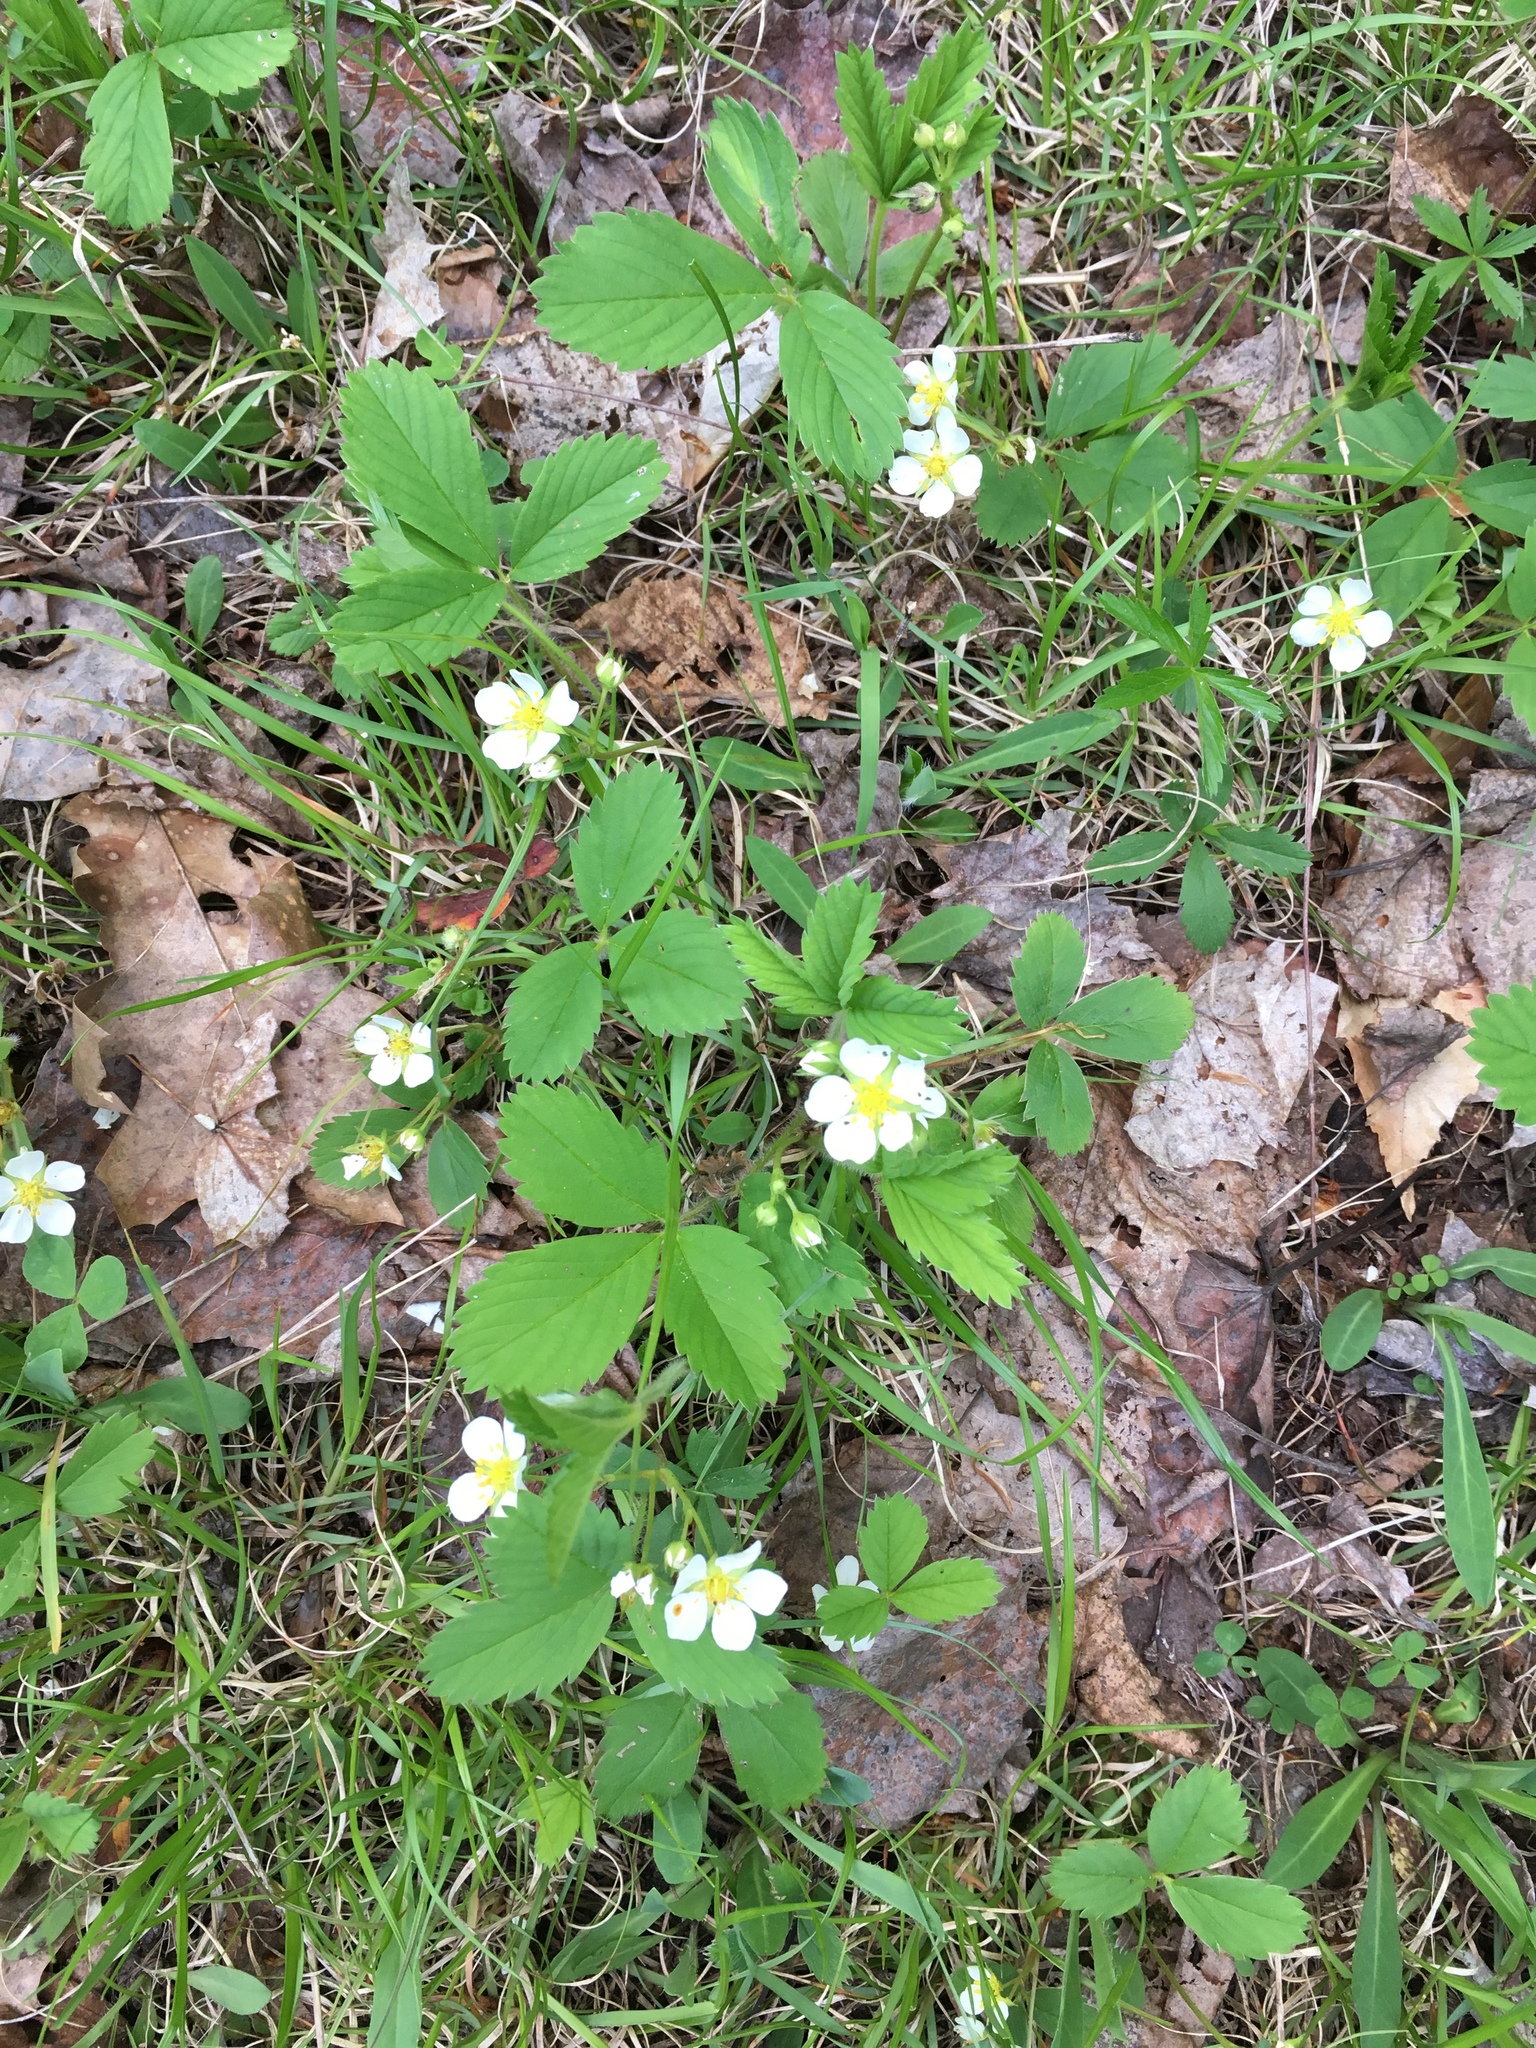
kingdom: Plantae
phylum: Tracheophyta
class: Magnoliopsida
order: Rosales
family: Rosaceae
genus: Fragaria
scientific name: Fragaria virginiana
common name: Thickleaved wild strawberry
